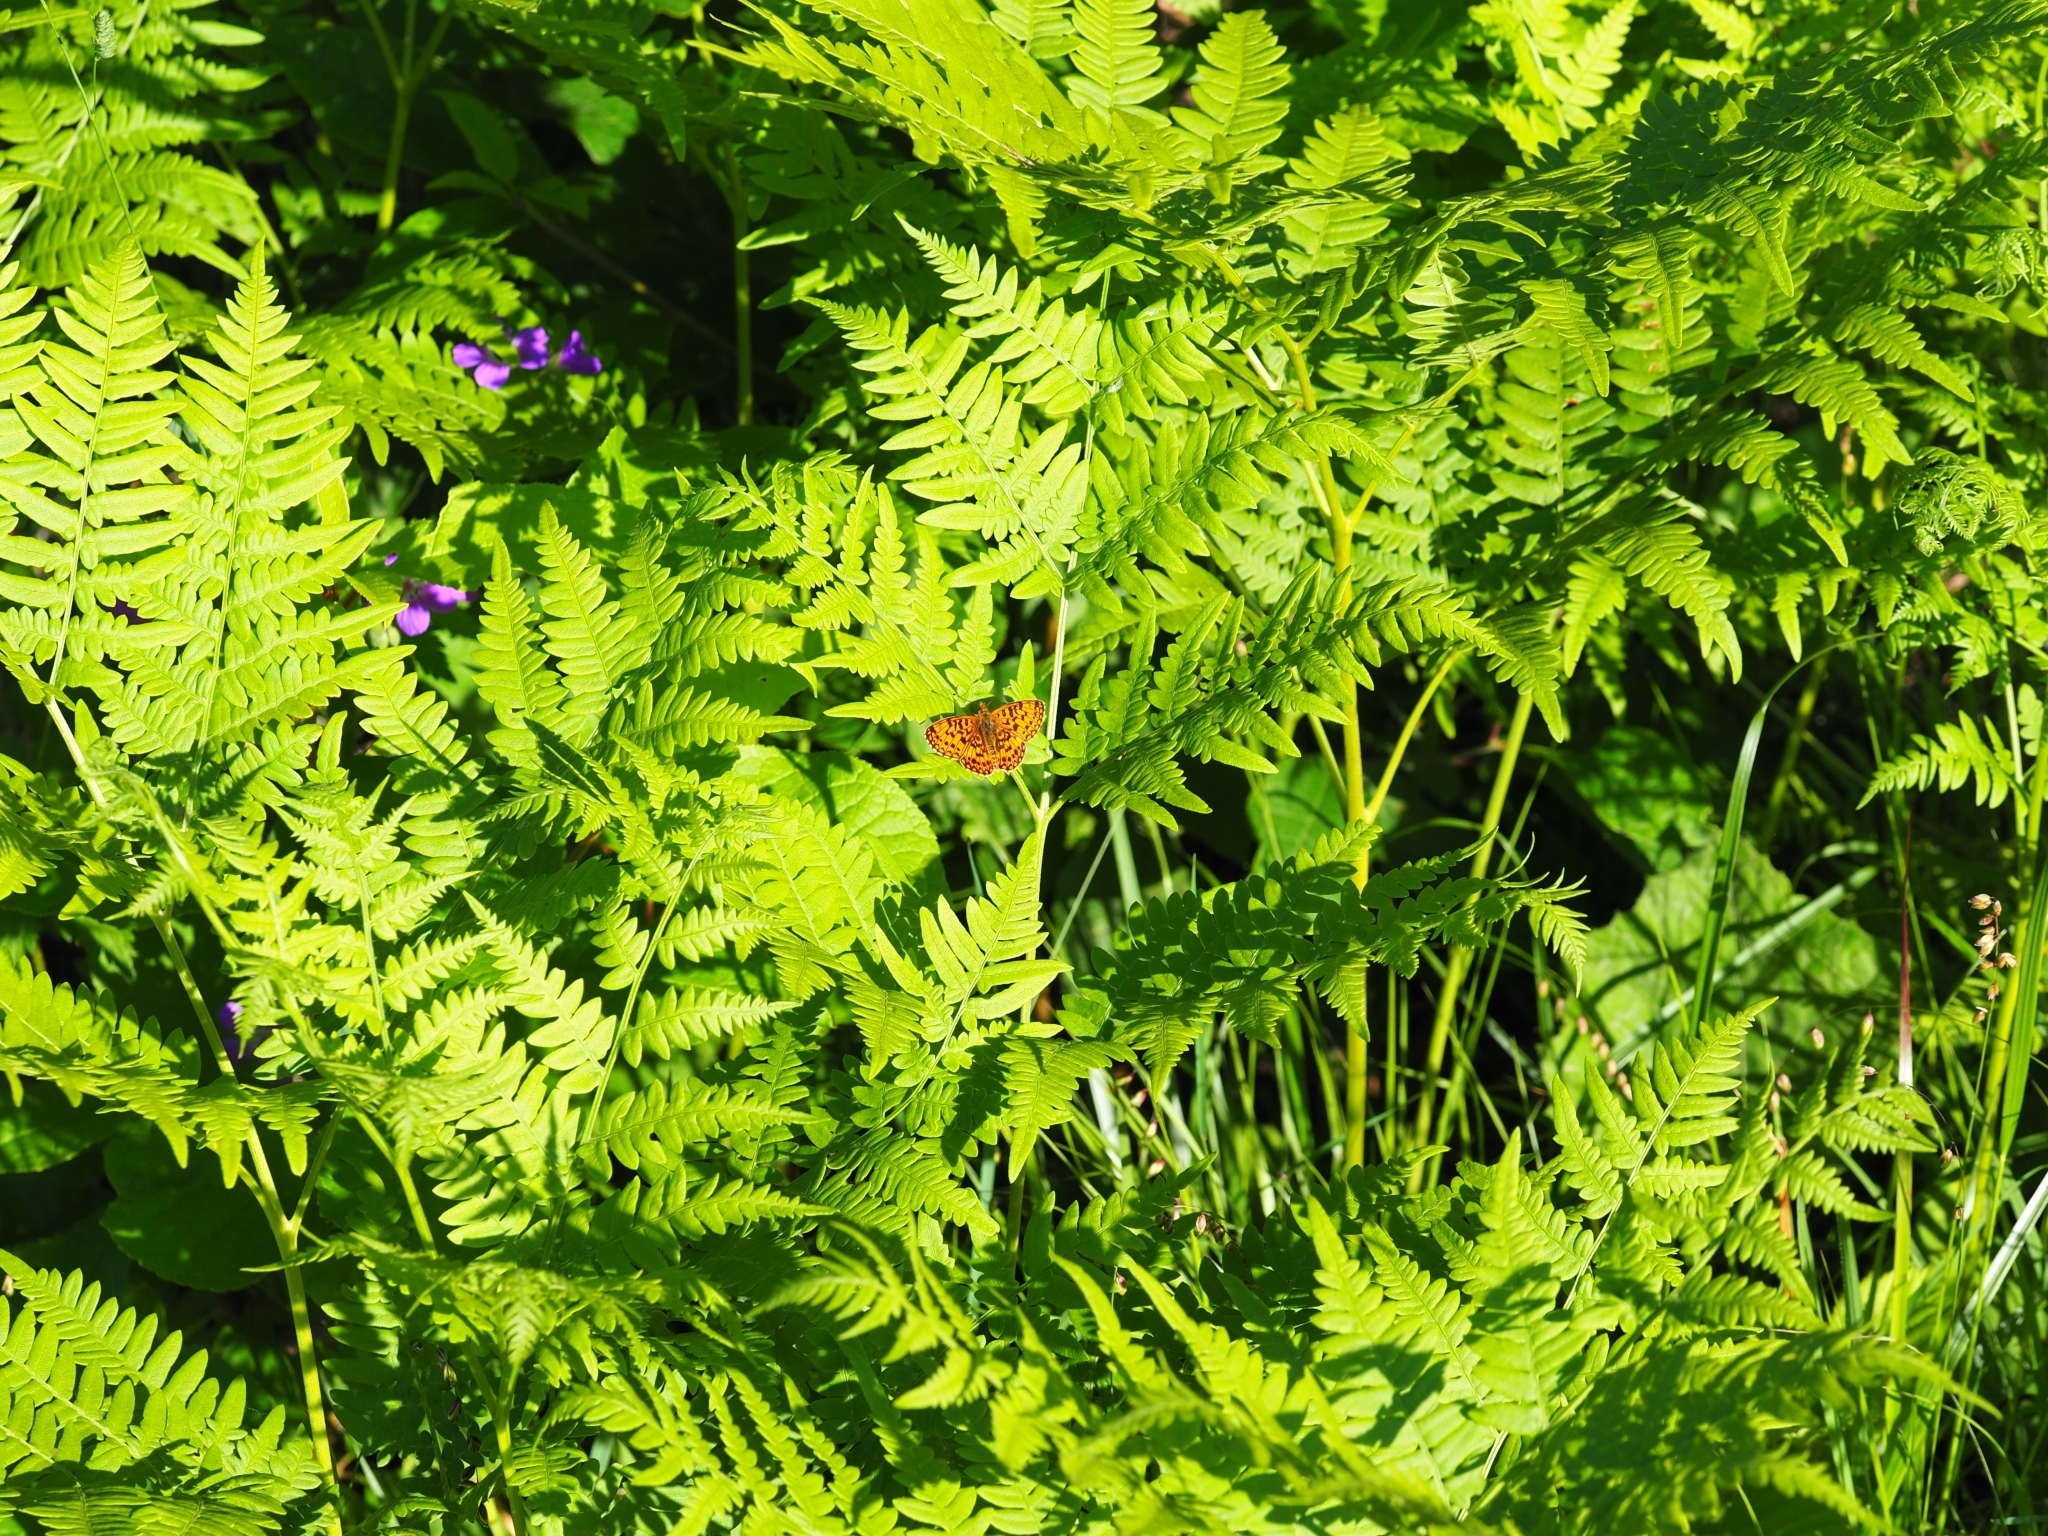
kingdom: Animalia
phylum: Arthropoda
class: Insecta
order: Lepidoptera
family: Nymphalidae
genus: Boloria
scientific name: Boloria selene
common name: Small pearl-bordered fritillary
